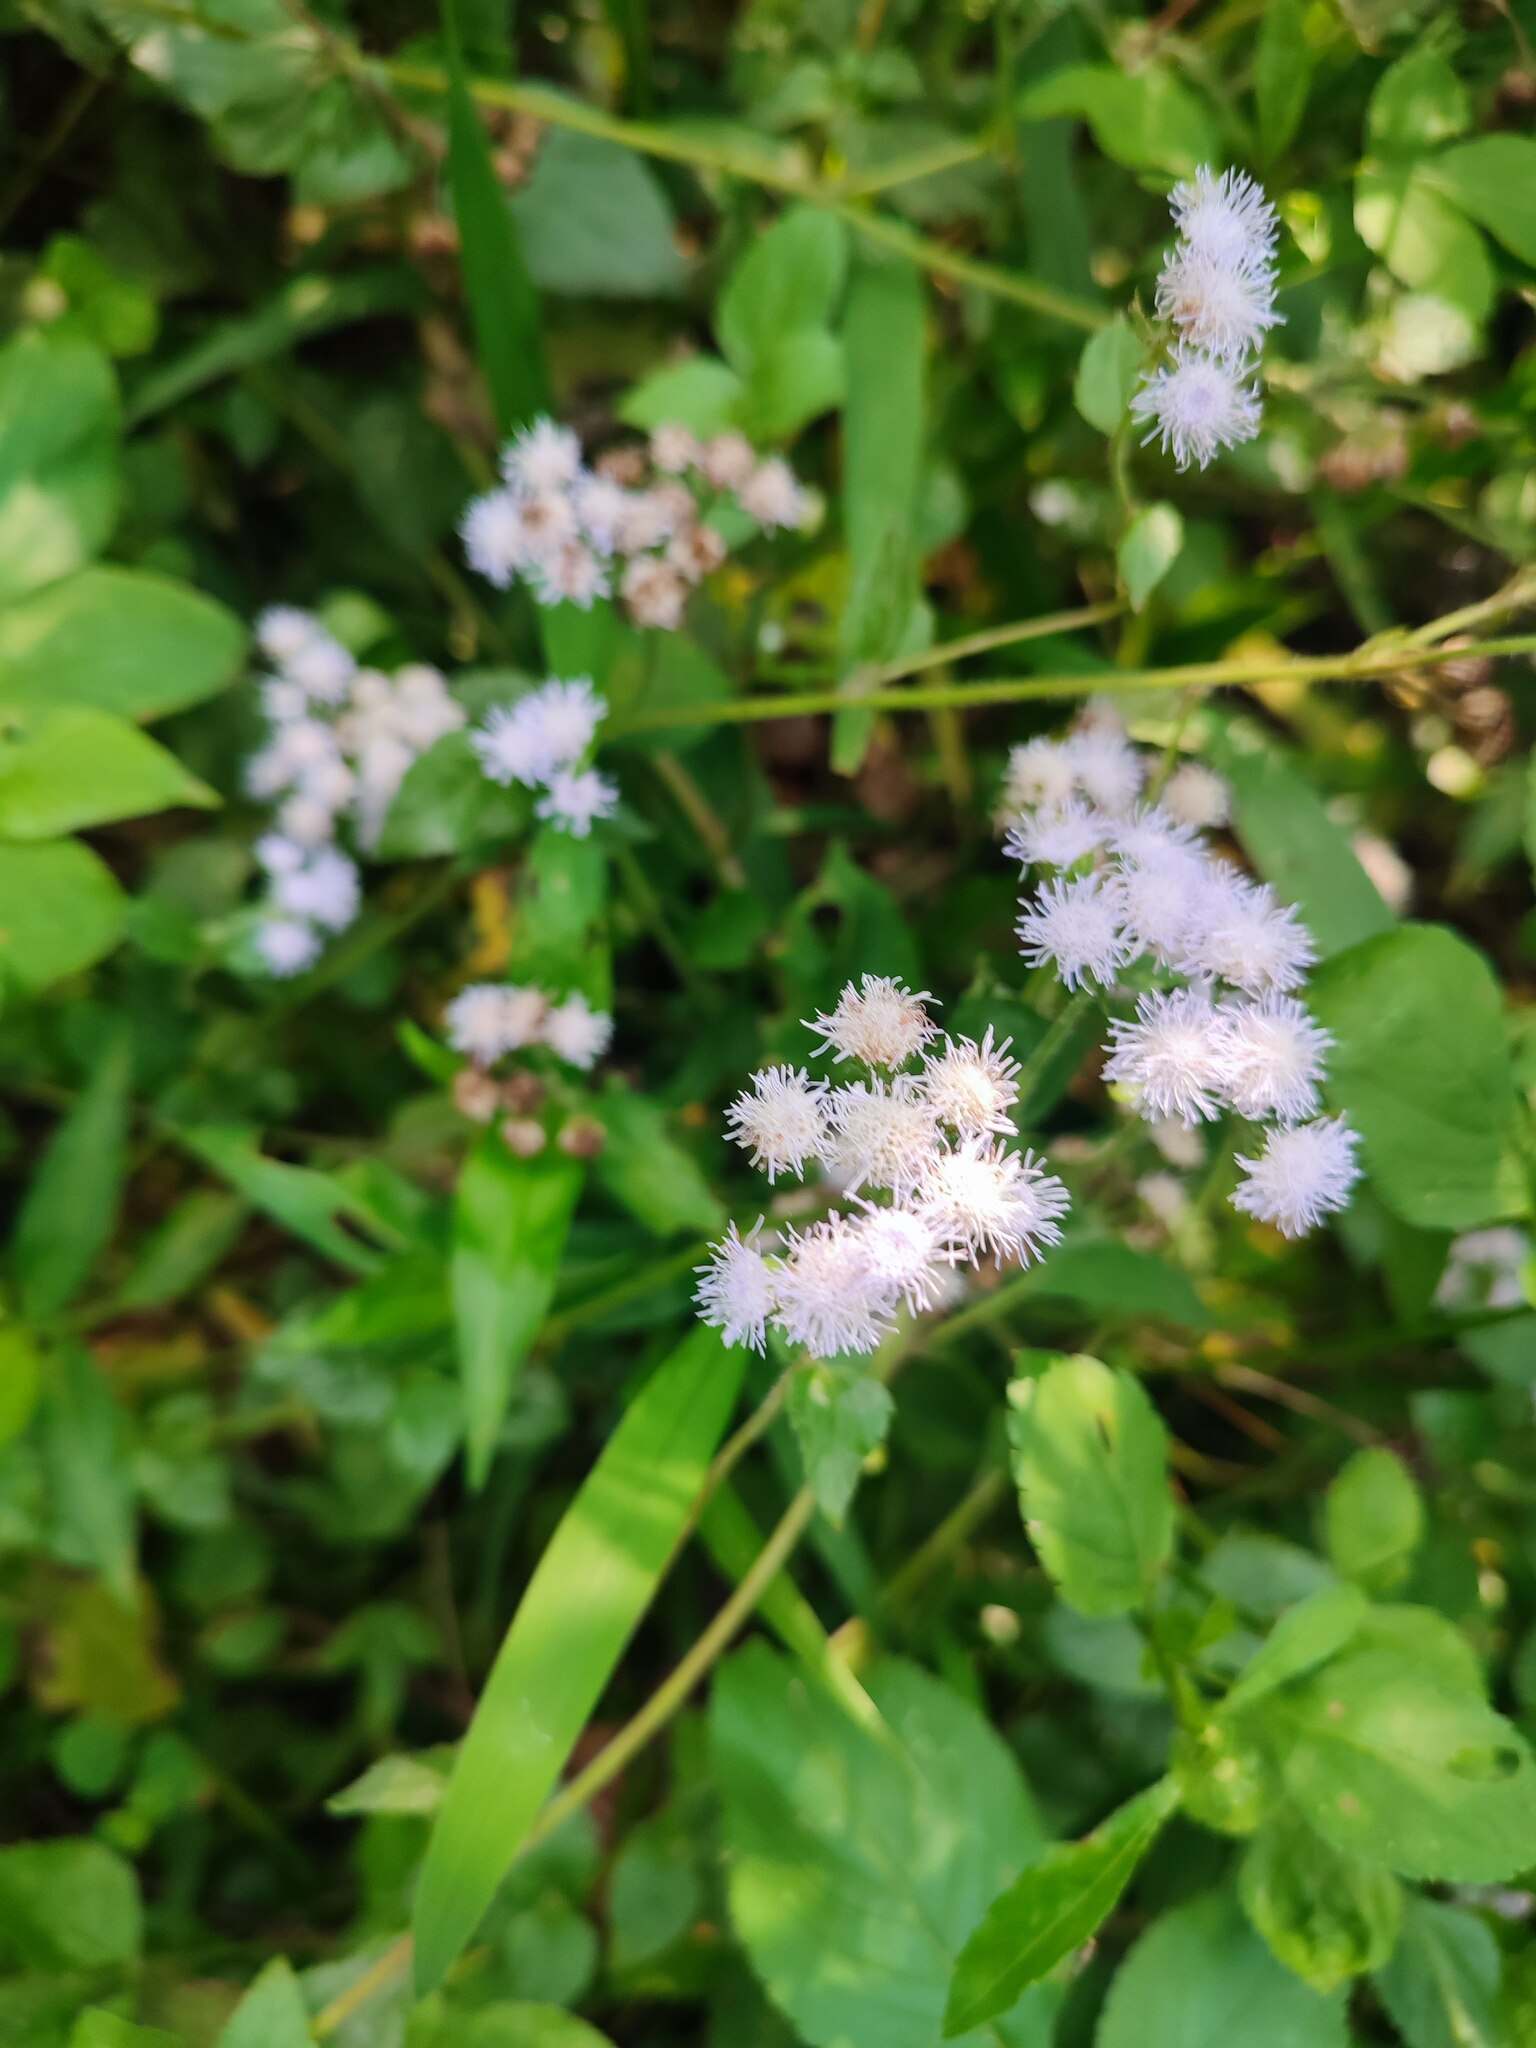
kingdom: Plantae
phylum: Tracheophyta
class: Magnoliopsida
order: Asterales
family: Asteraceae
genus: Ageratum
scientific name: Ageratum houstonianum
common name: Bluemink
